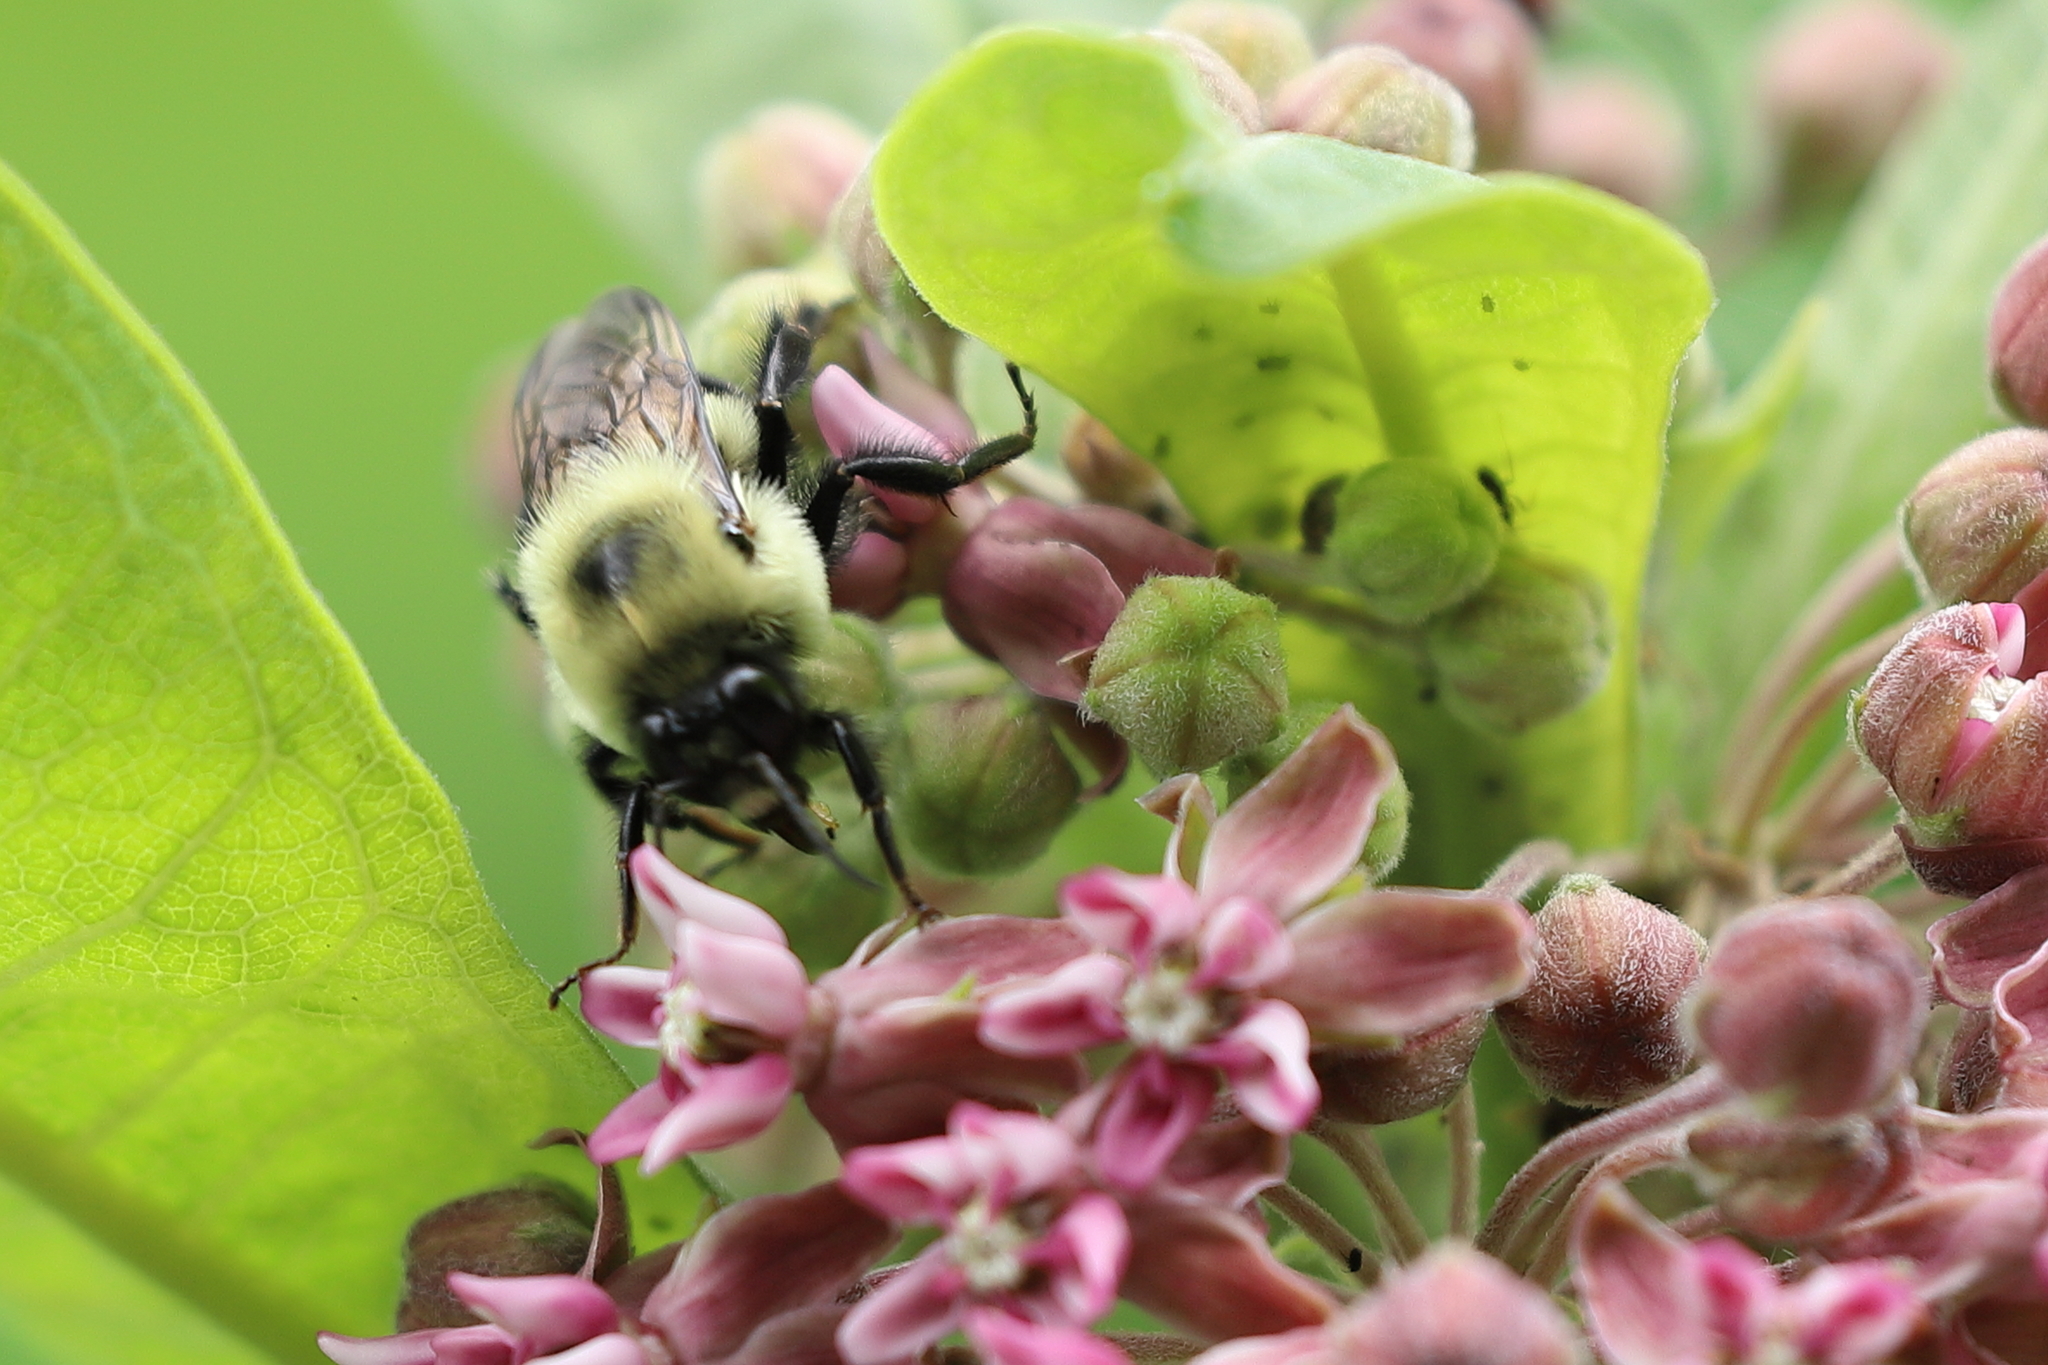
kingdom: Animalia
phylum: Arthropoda
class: Insecta
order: Hymenoptera
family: Apidae
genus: Bombus
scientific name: Bombus griseocollis
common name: Brown-belted bumble bee
